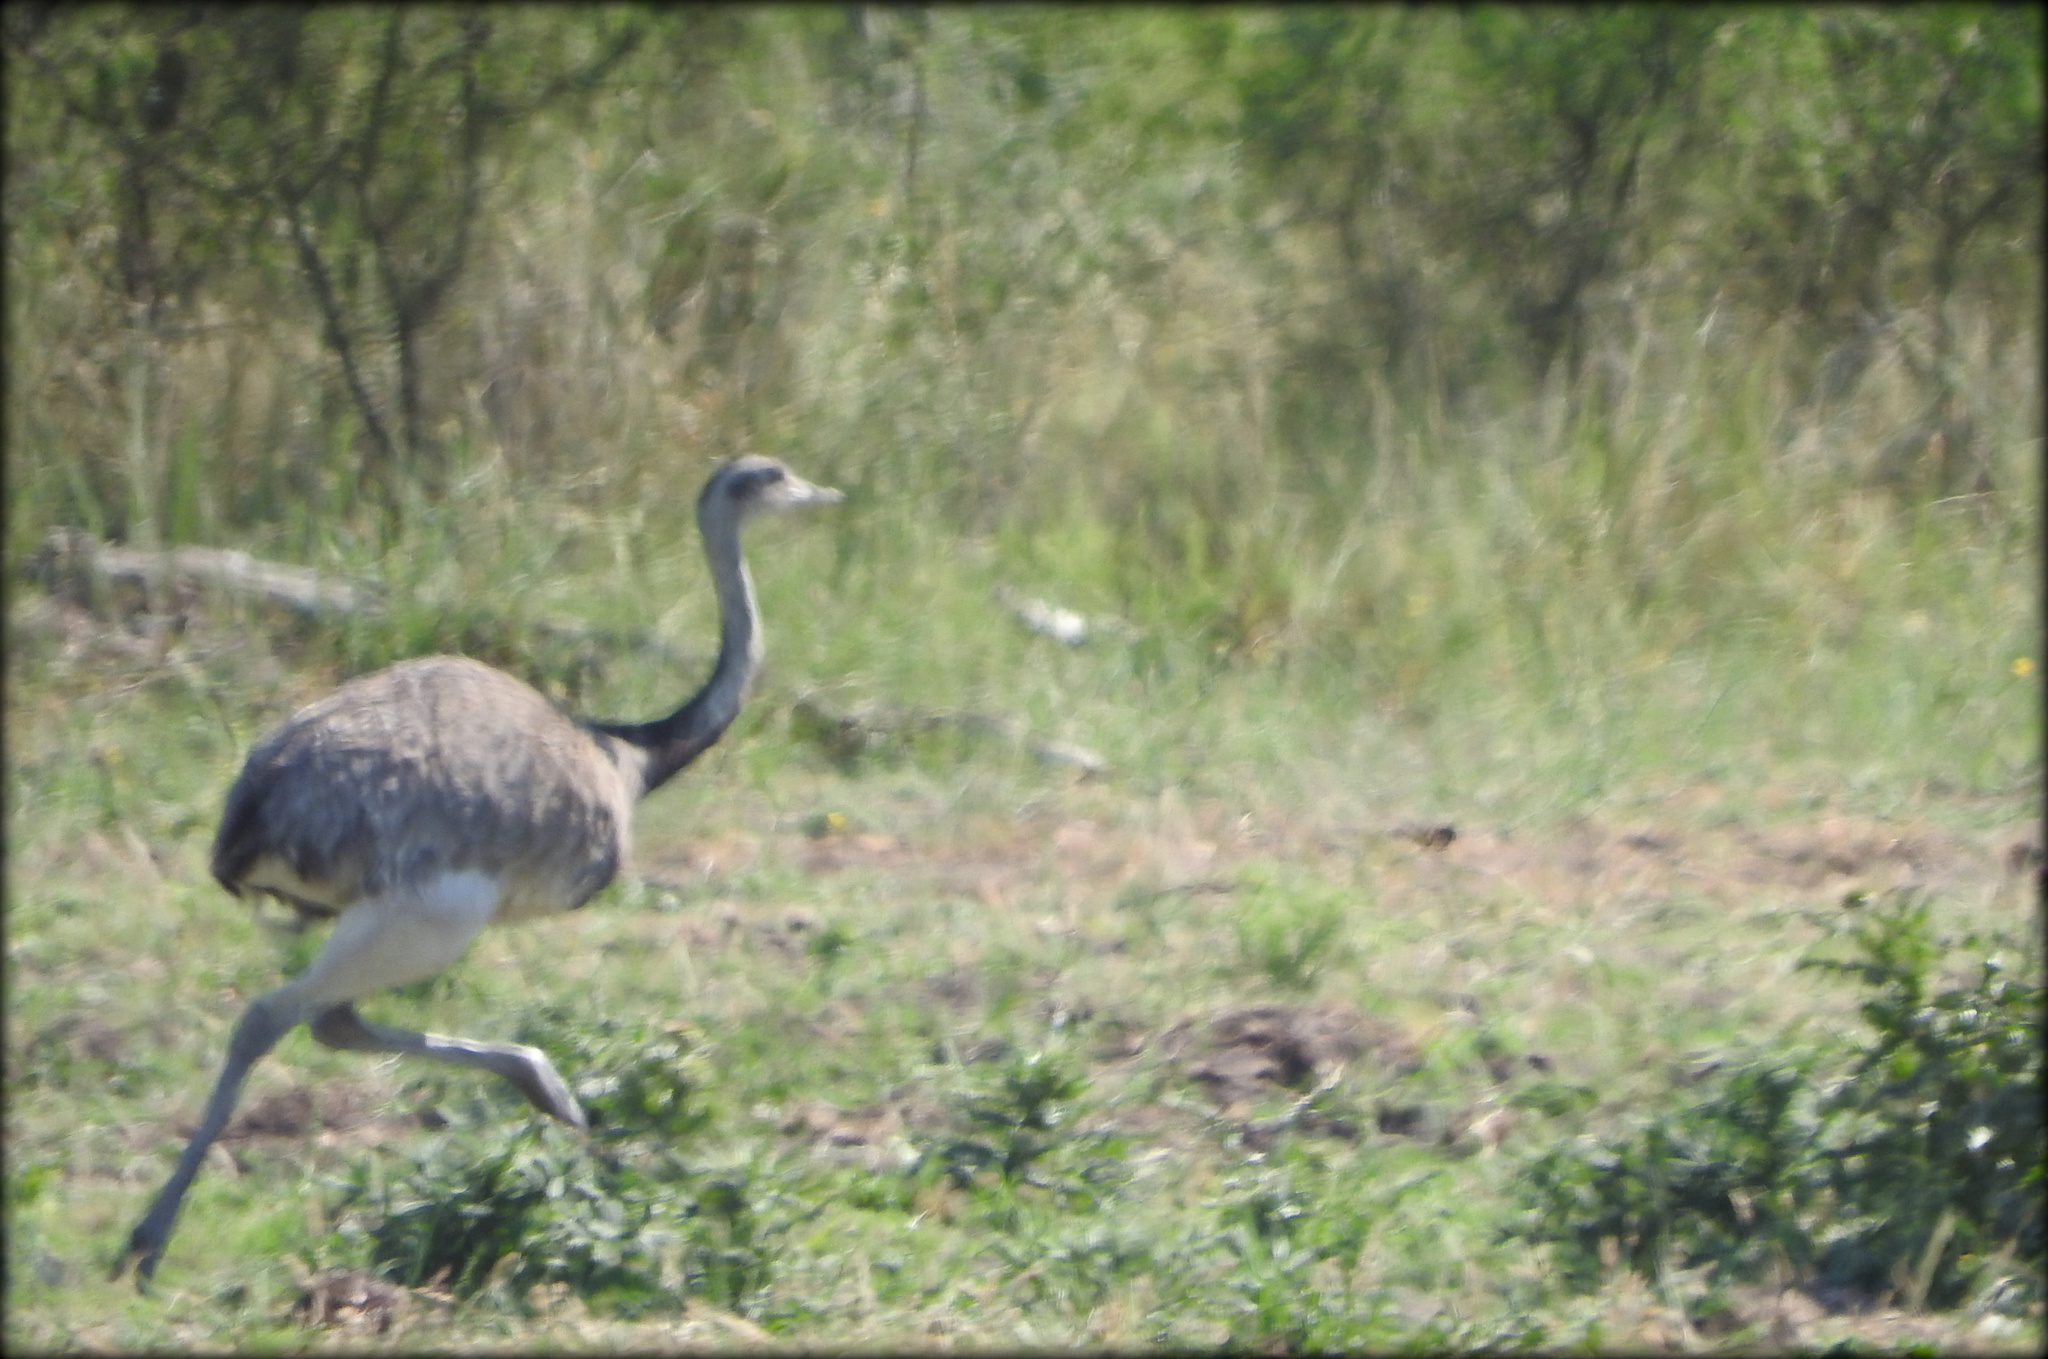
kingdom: Animalia
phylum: Chordata
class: Aves
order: Rheiformes
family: Rheidae
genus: Rhea
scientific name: Rhea americana
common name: Greater rhea
